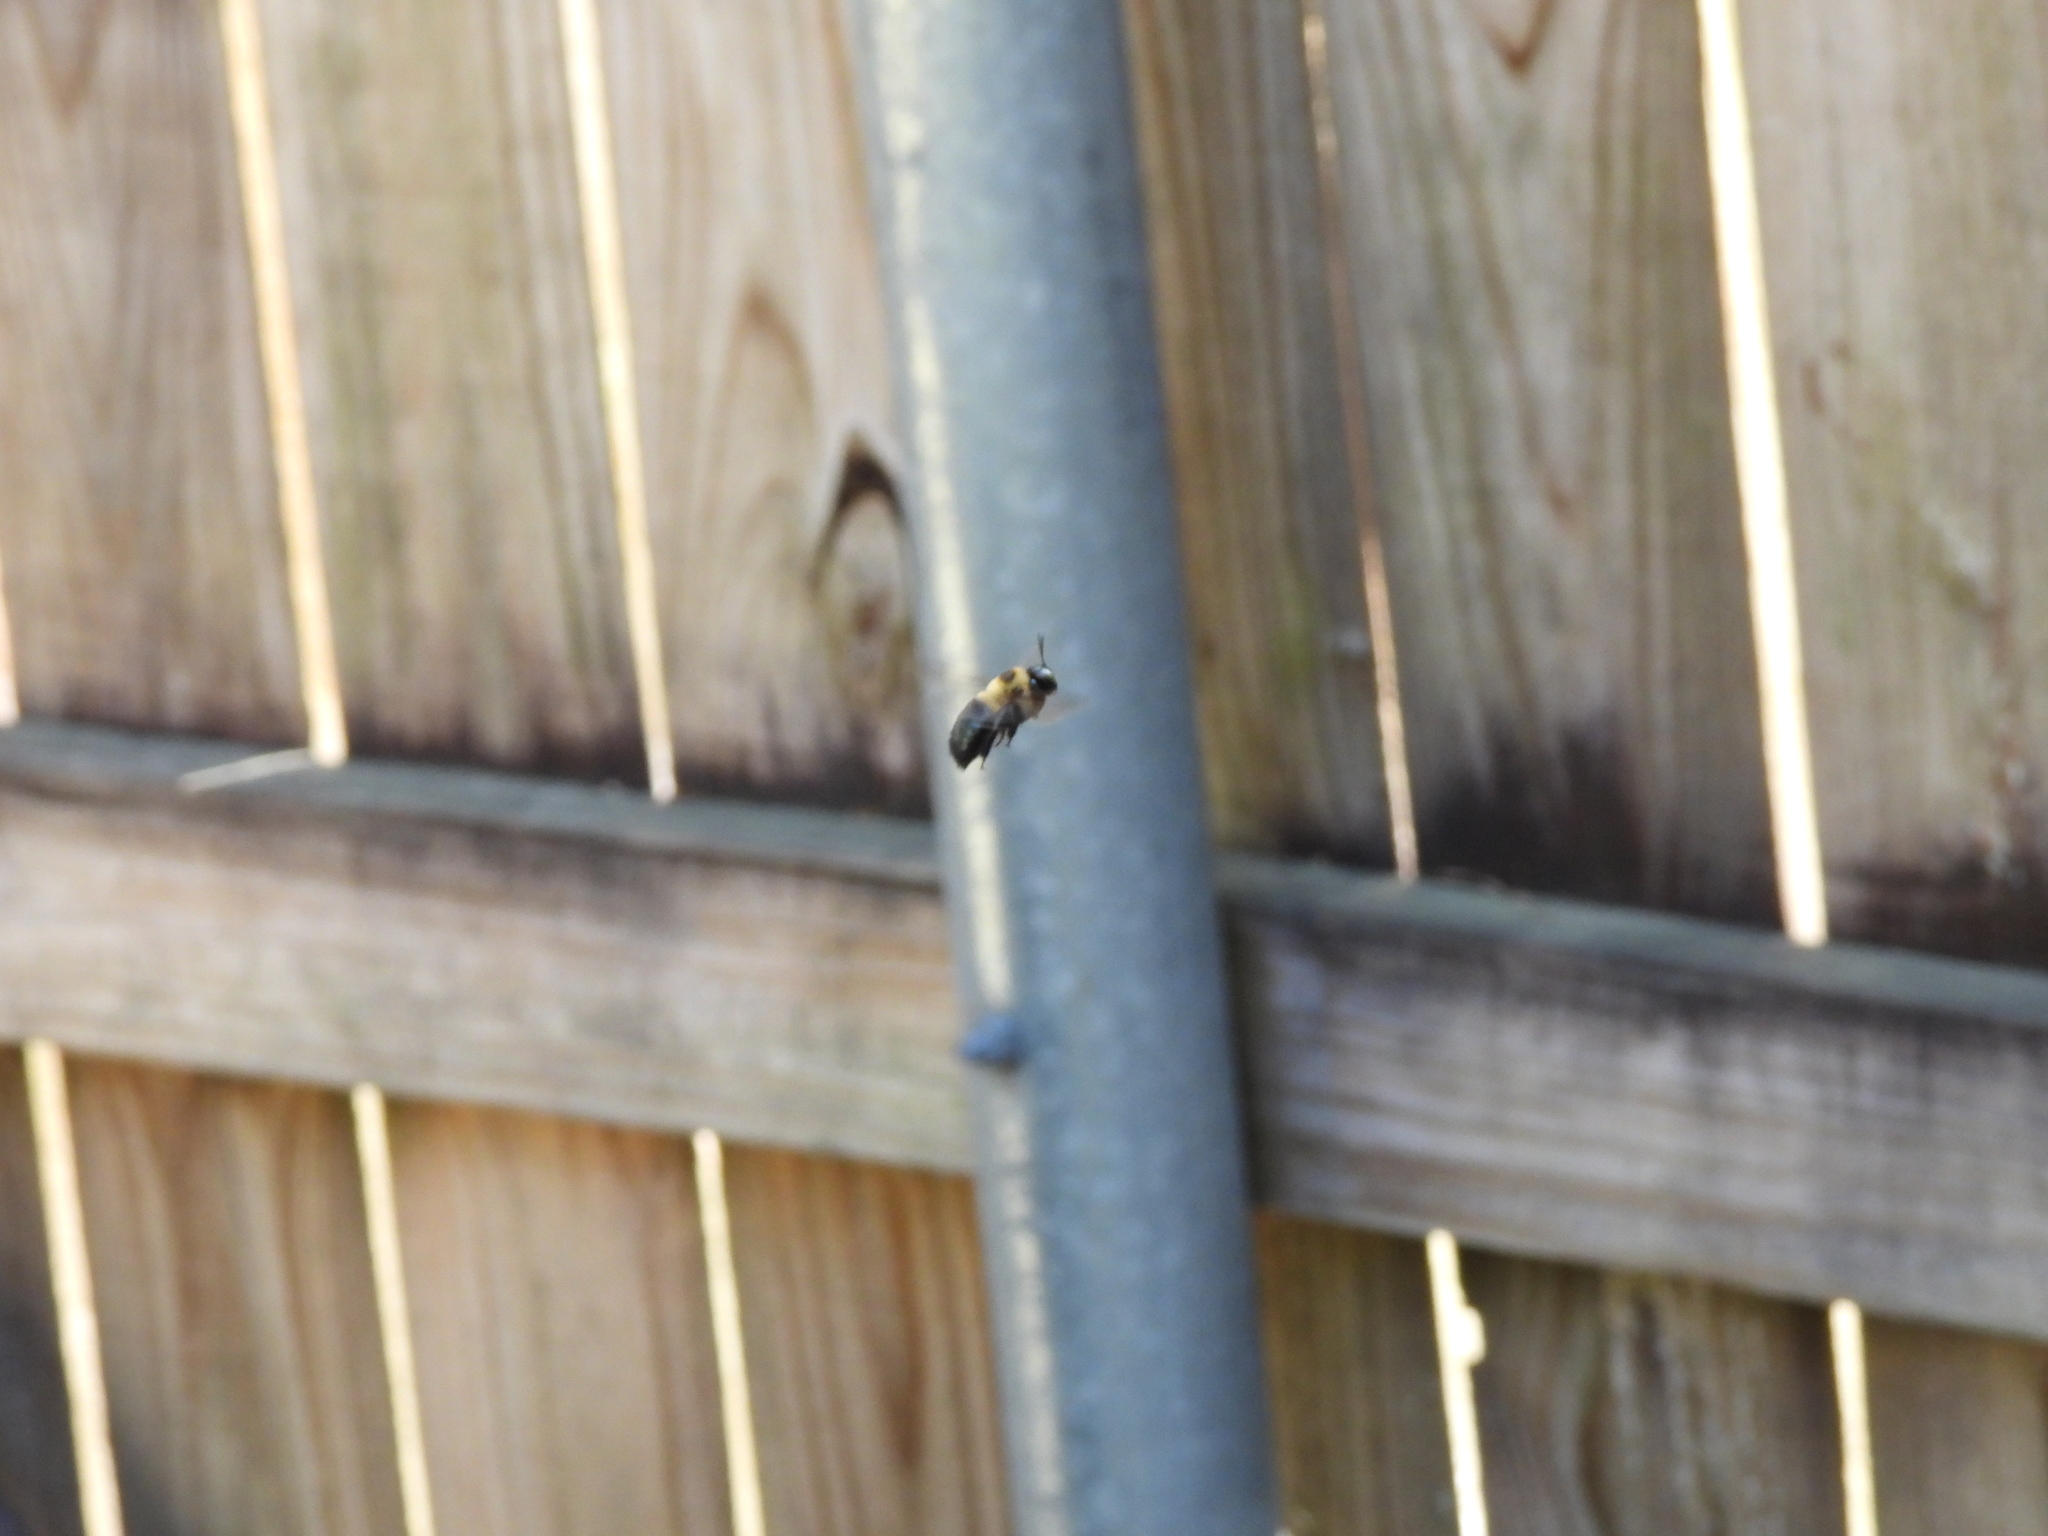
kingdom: Animalia
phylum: Arthropoda
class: Insecta
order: Hymenoptera
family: Apidae
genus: Xylocopa
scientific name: Xylocopa virginica
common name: Carpenter bee
